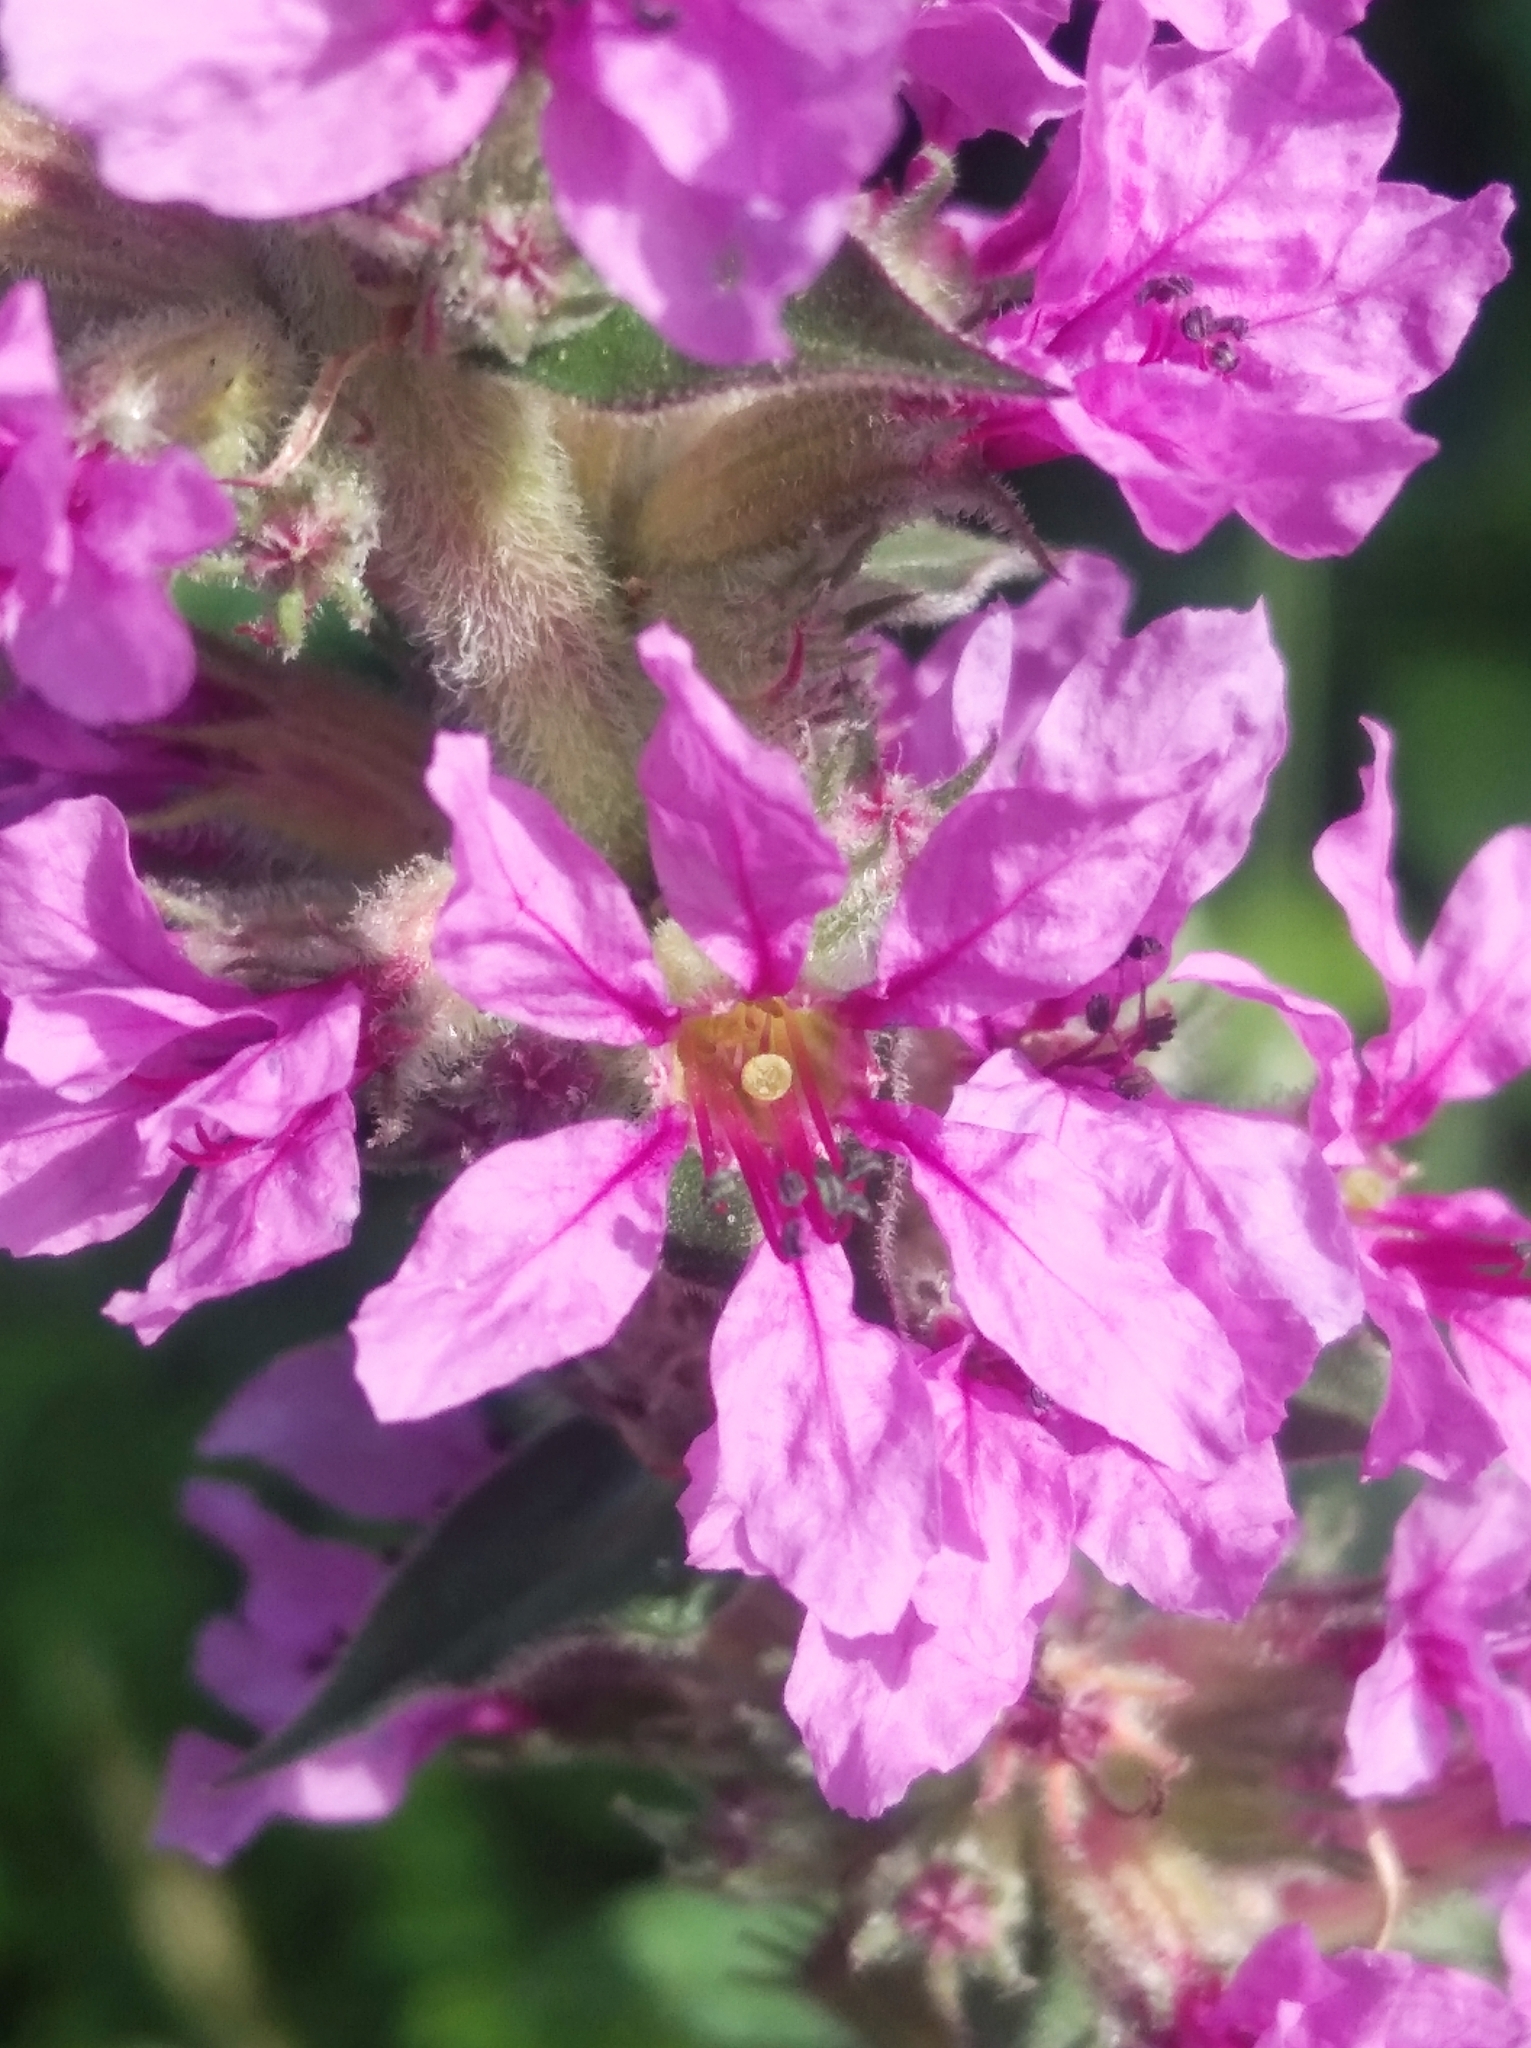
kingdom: Plantae
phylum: Tracheophyta
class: Magnoliopsida
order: Myrtales
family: Lythraceae
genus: Lythrum
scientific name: Lythrum salicaria
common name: Purple loosestrife
